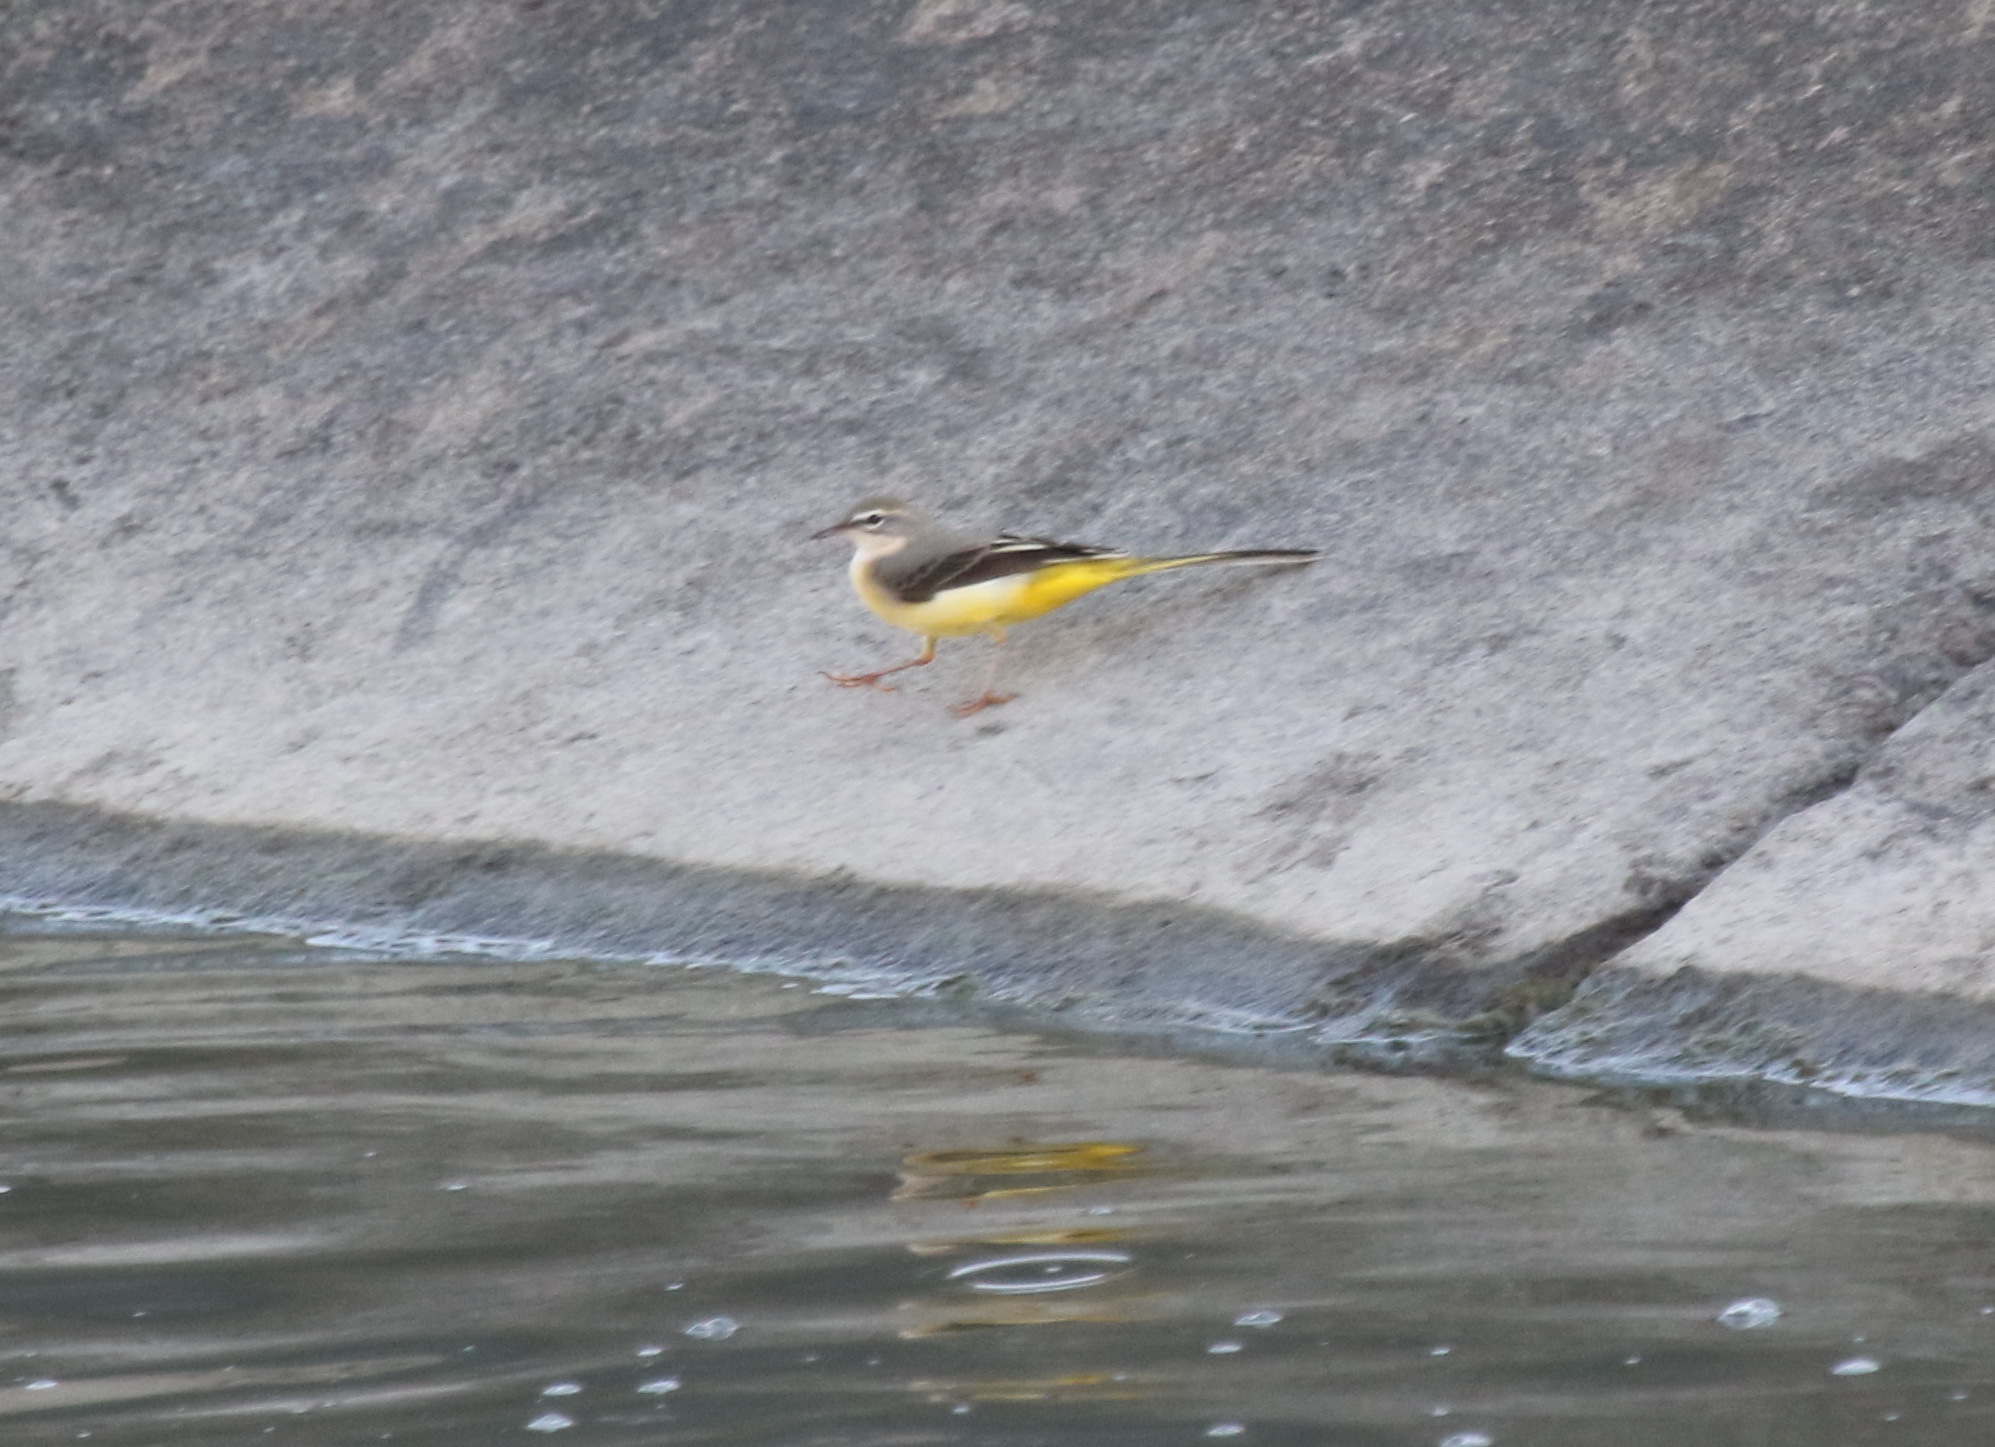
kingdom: Animalia
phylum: Chordata
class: Aves
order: Passeriformes
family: Motacillidae
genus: Motacilla
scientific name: Motacilla cinerea
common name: Grey wagtail
